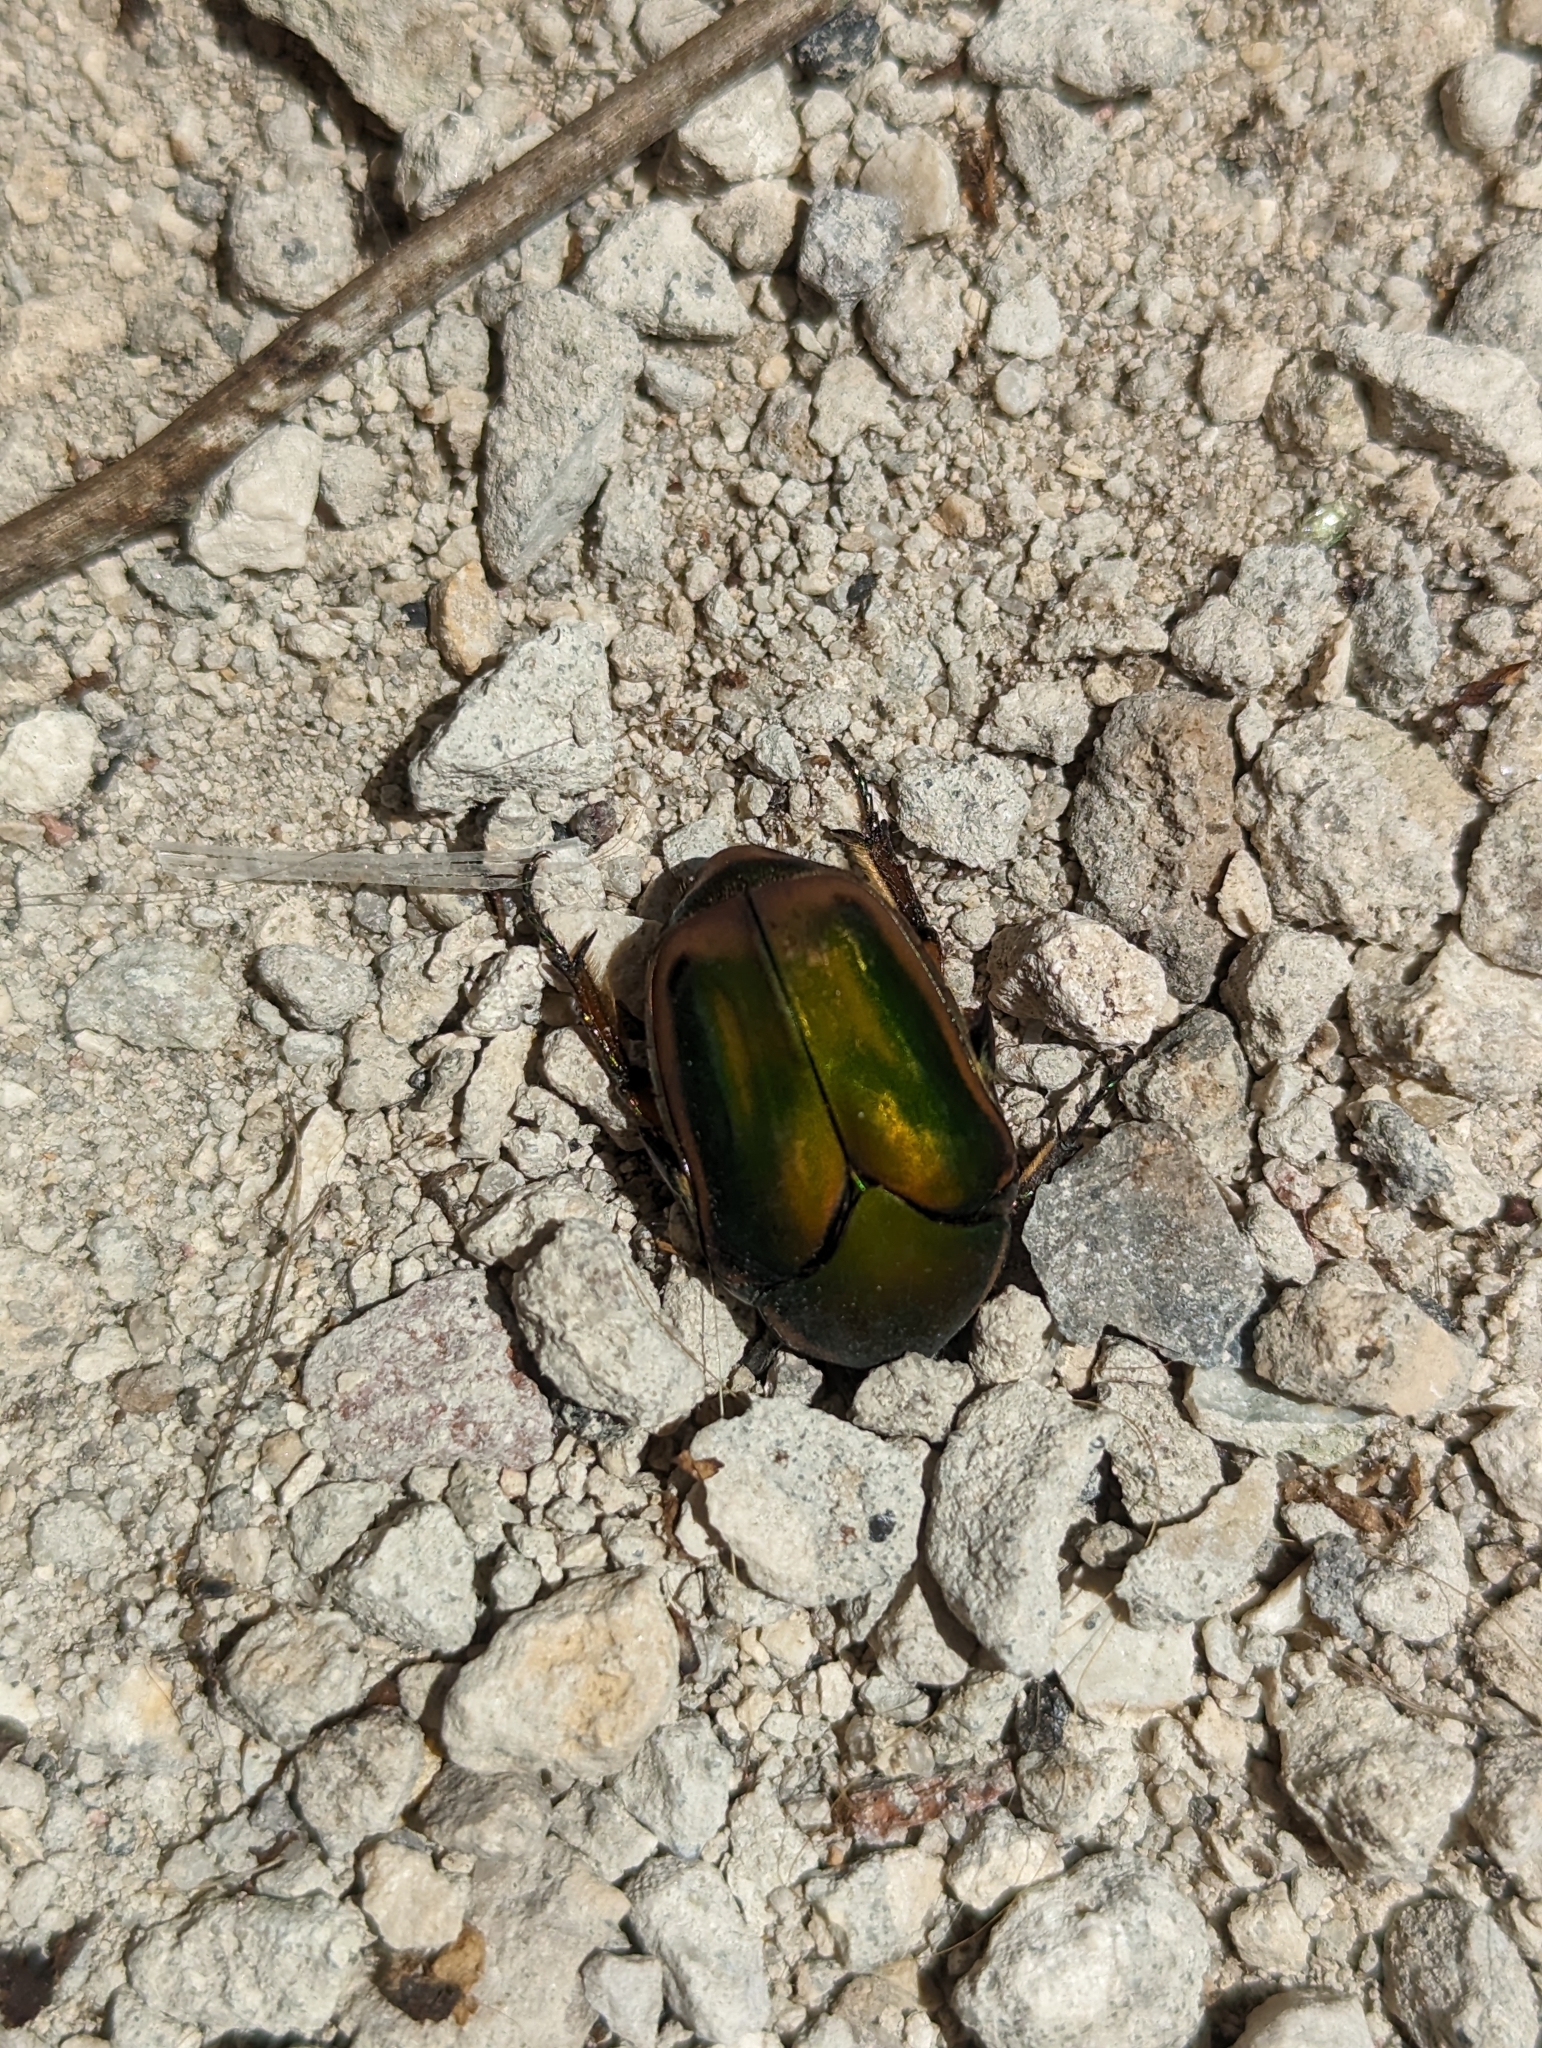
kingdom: Animalia
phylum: Arthropoda
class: Insecta
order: Coleoptera
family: Scarabaeidae
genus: Cotinis
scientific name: Cotinis nitida
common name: Common green june beetle
